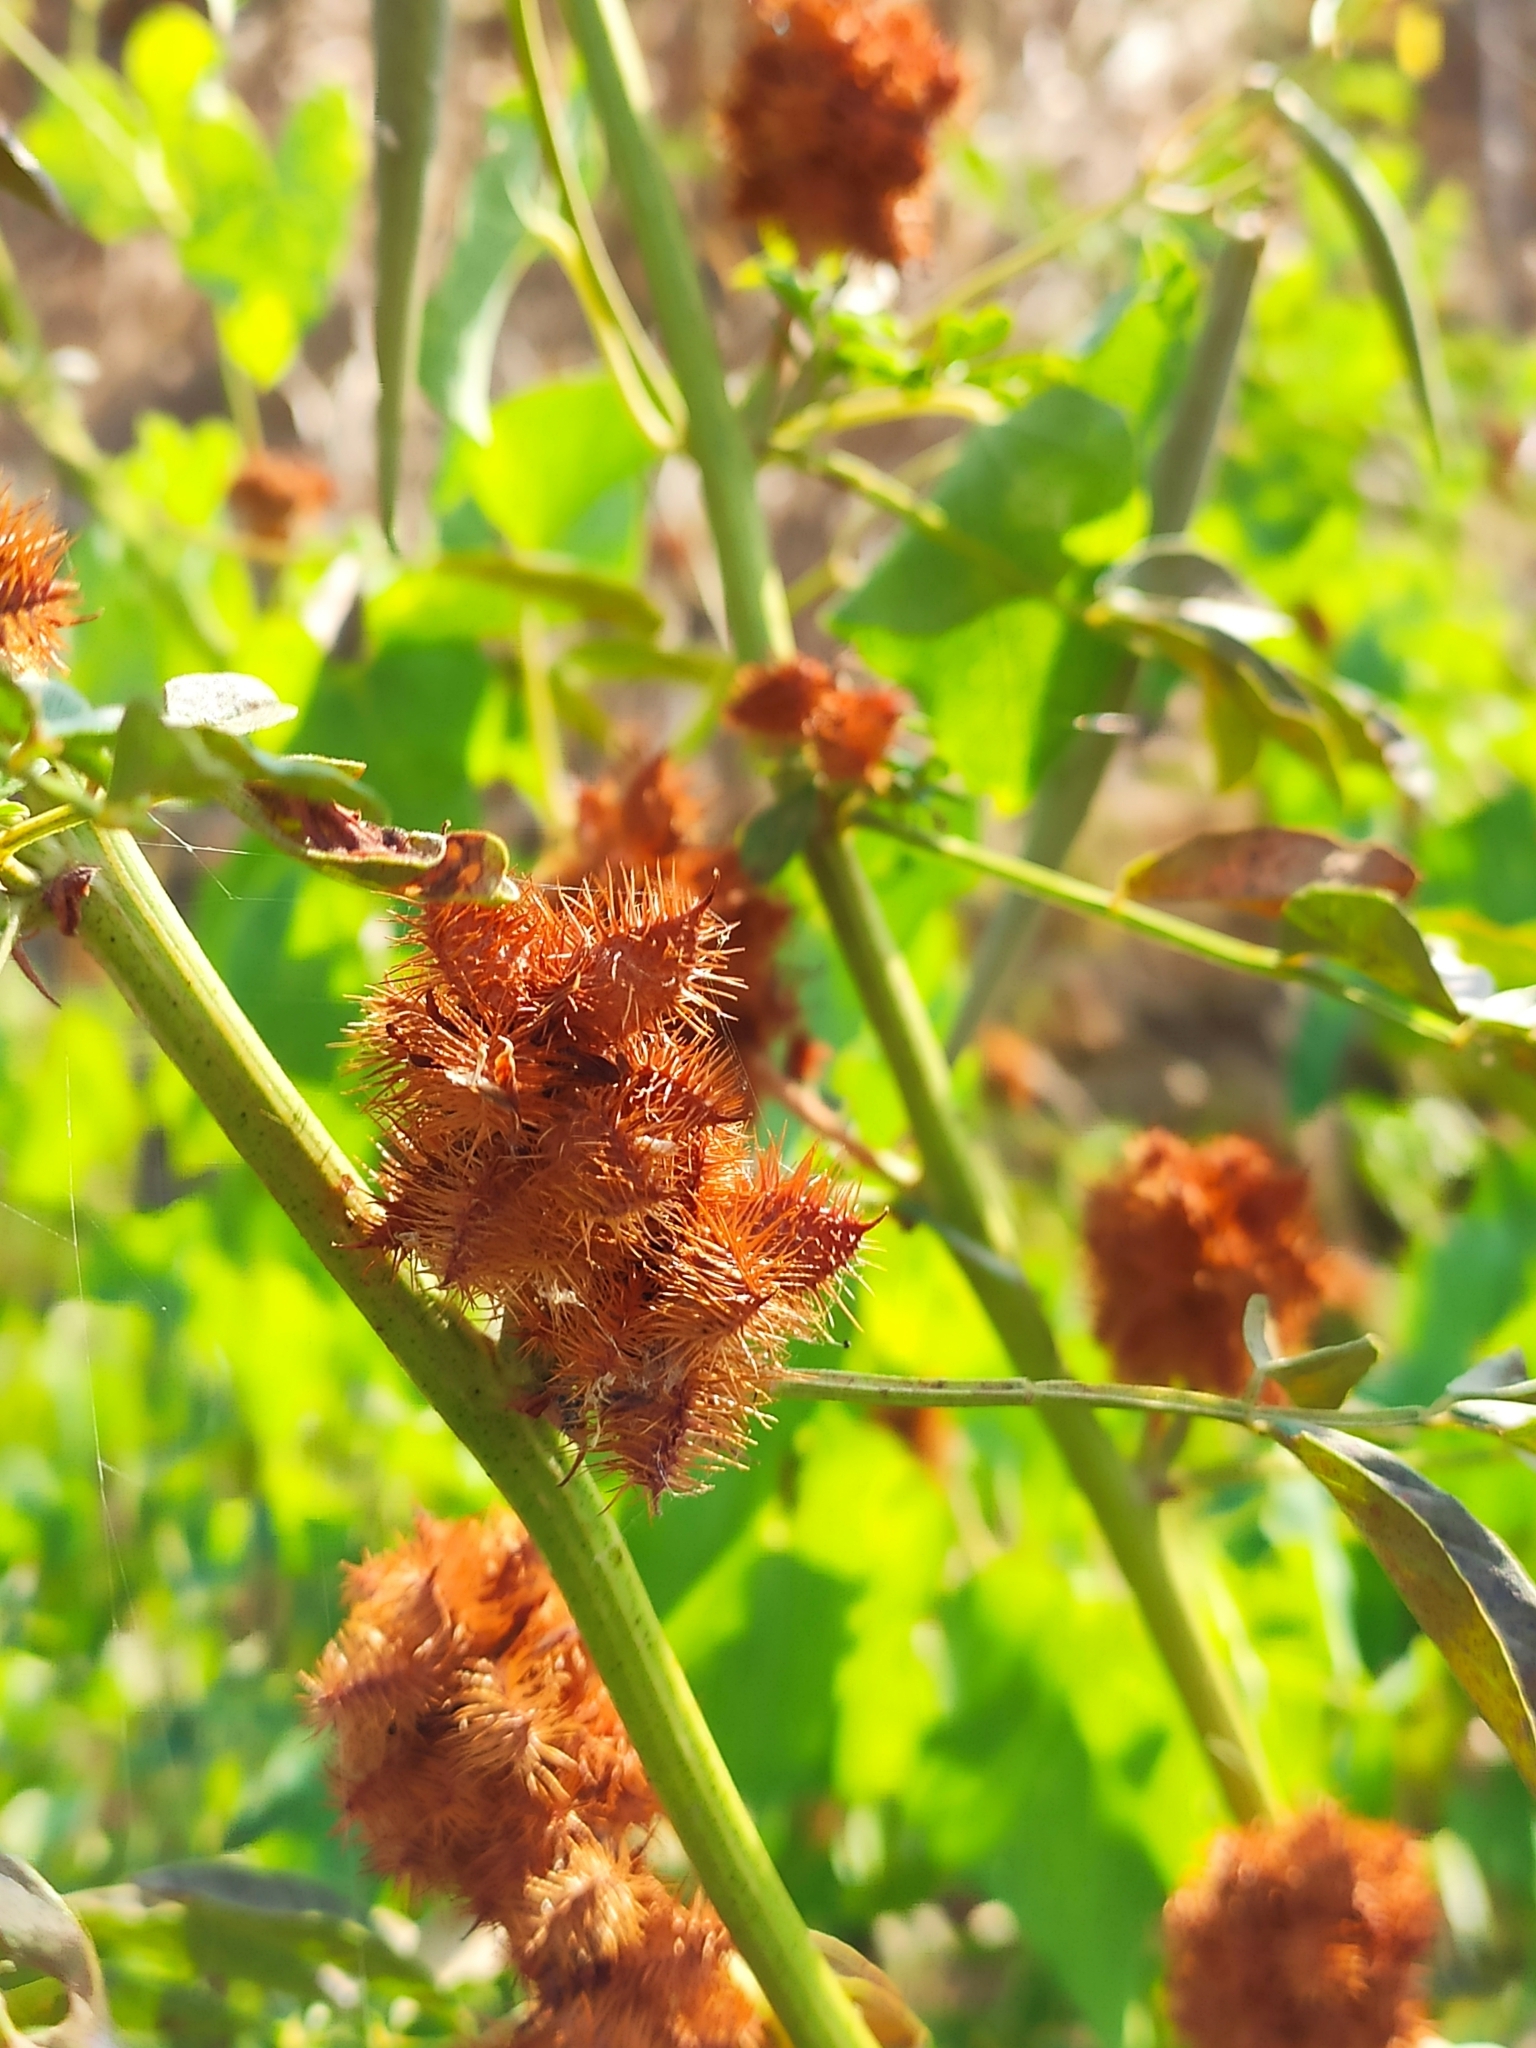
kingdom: Plantae
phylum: Tracheophyta
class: Magnoliopsida
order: Fabales
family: Fabaceae
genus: Glycyrrhiza
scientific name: Glycyrrhiza echinata
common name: German liquorice
